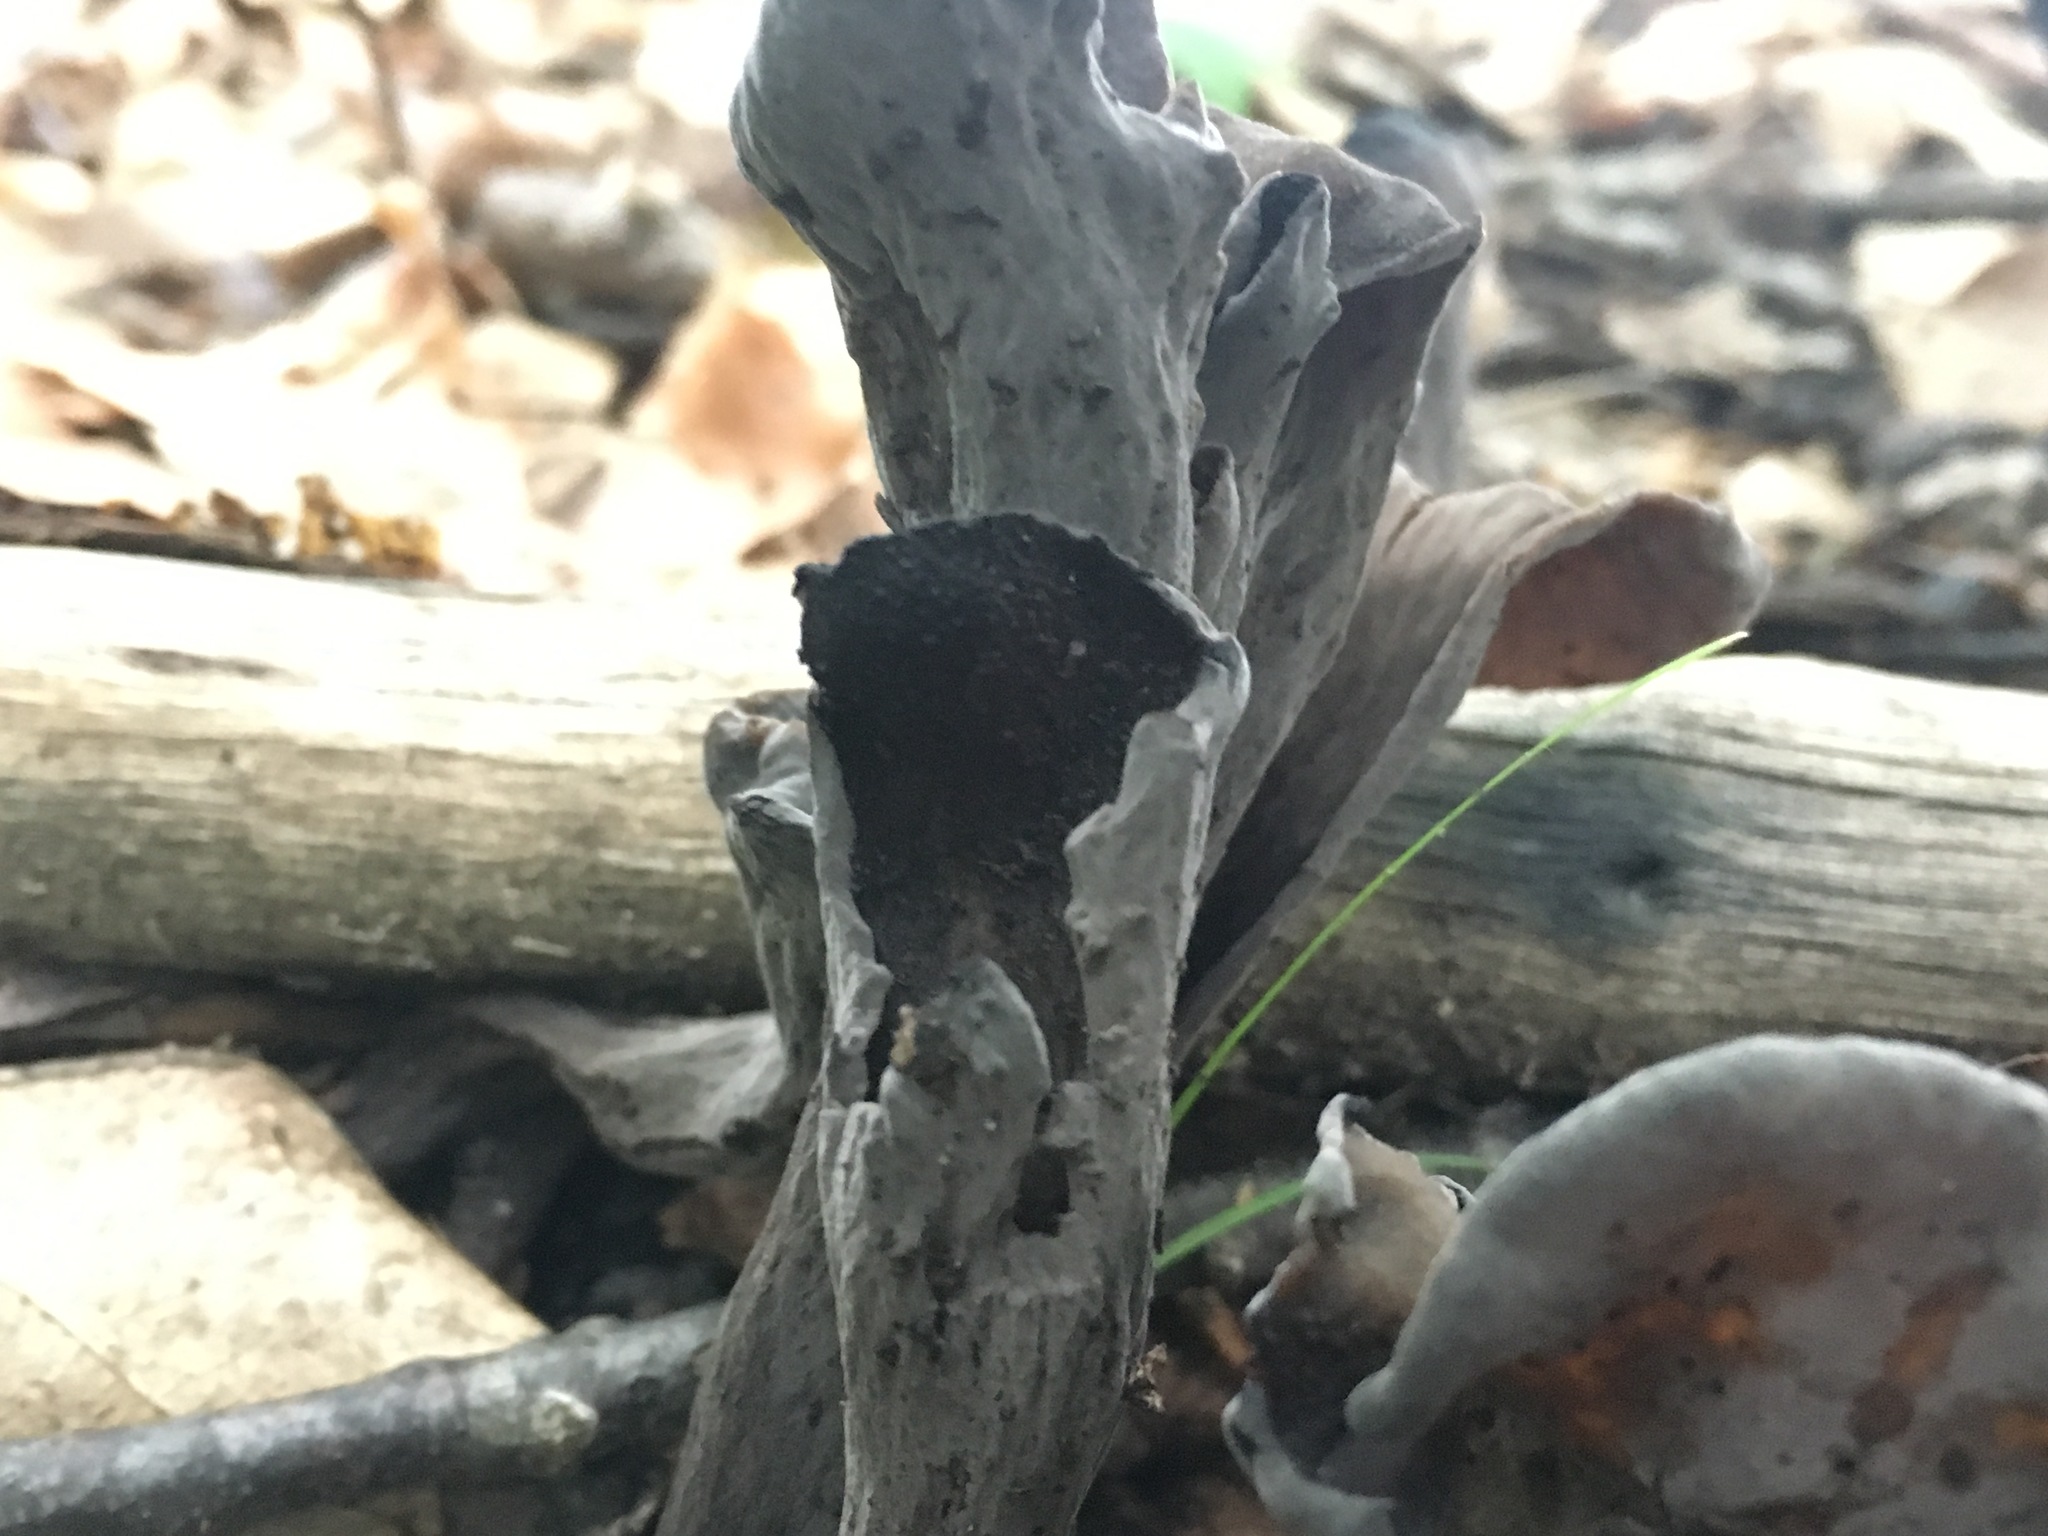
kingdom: Fungi
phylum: Basidiomycota
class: Agaricomycetes
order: Cantharellales
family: Hydnaceae
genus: Craterellus
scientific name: Craterellus cornucopioides
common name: Horn of plenty
